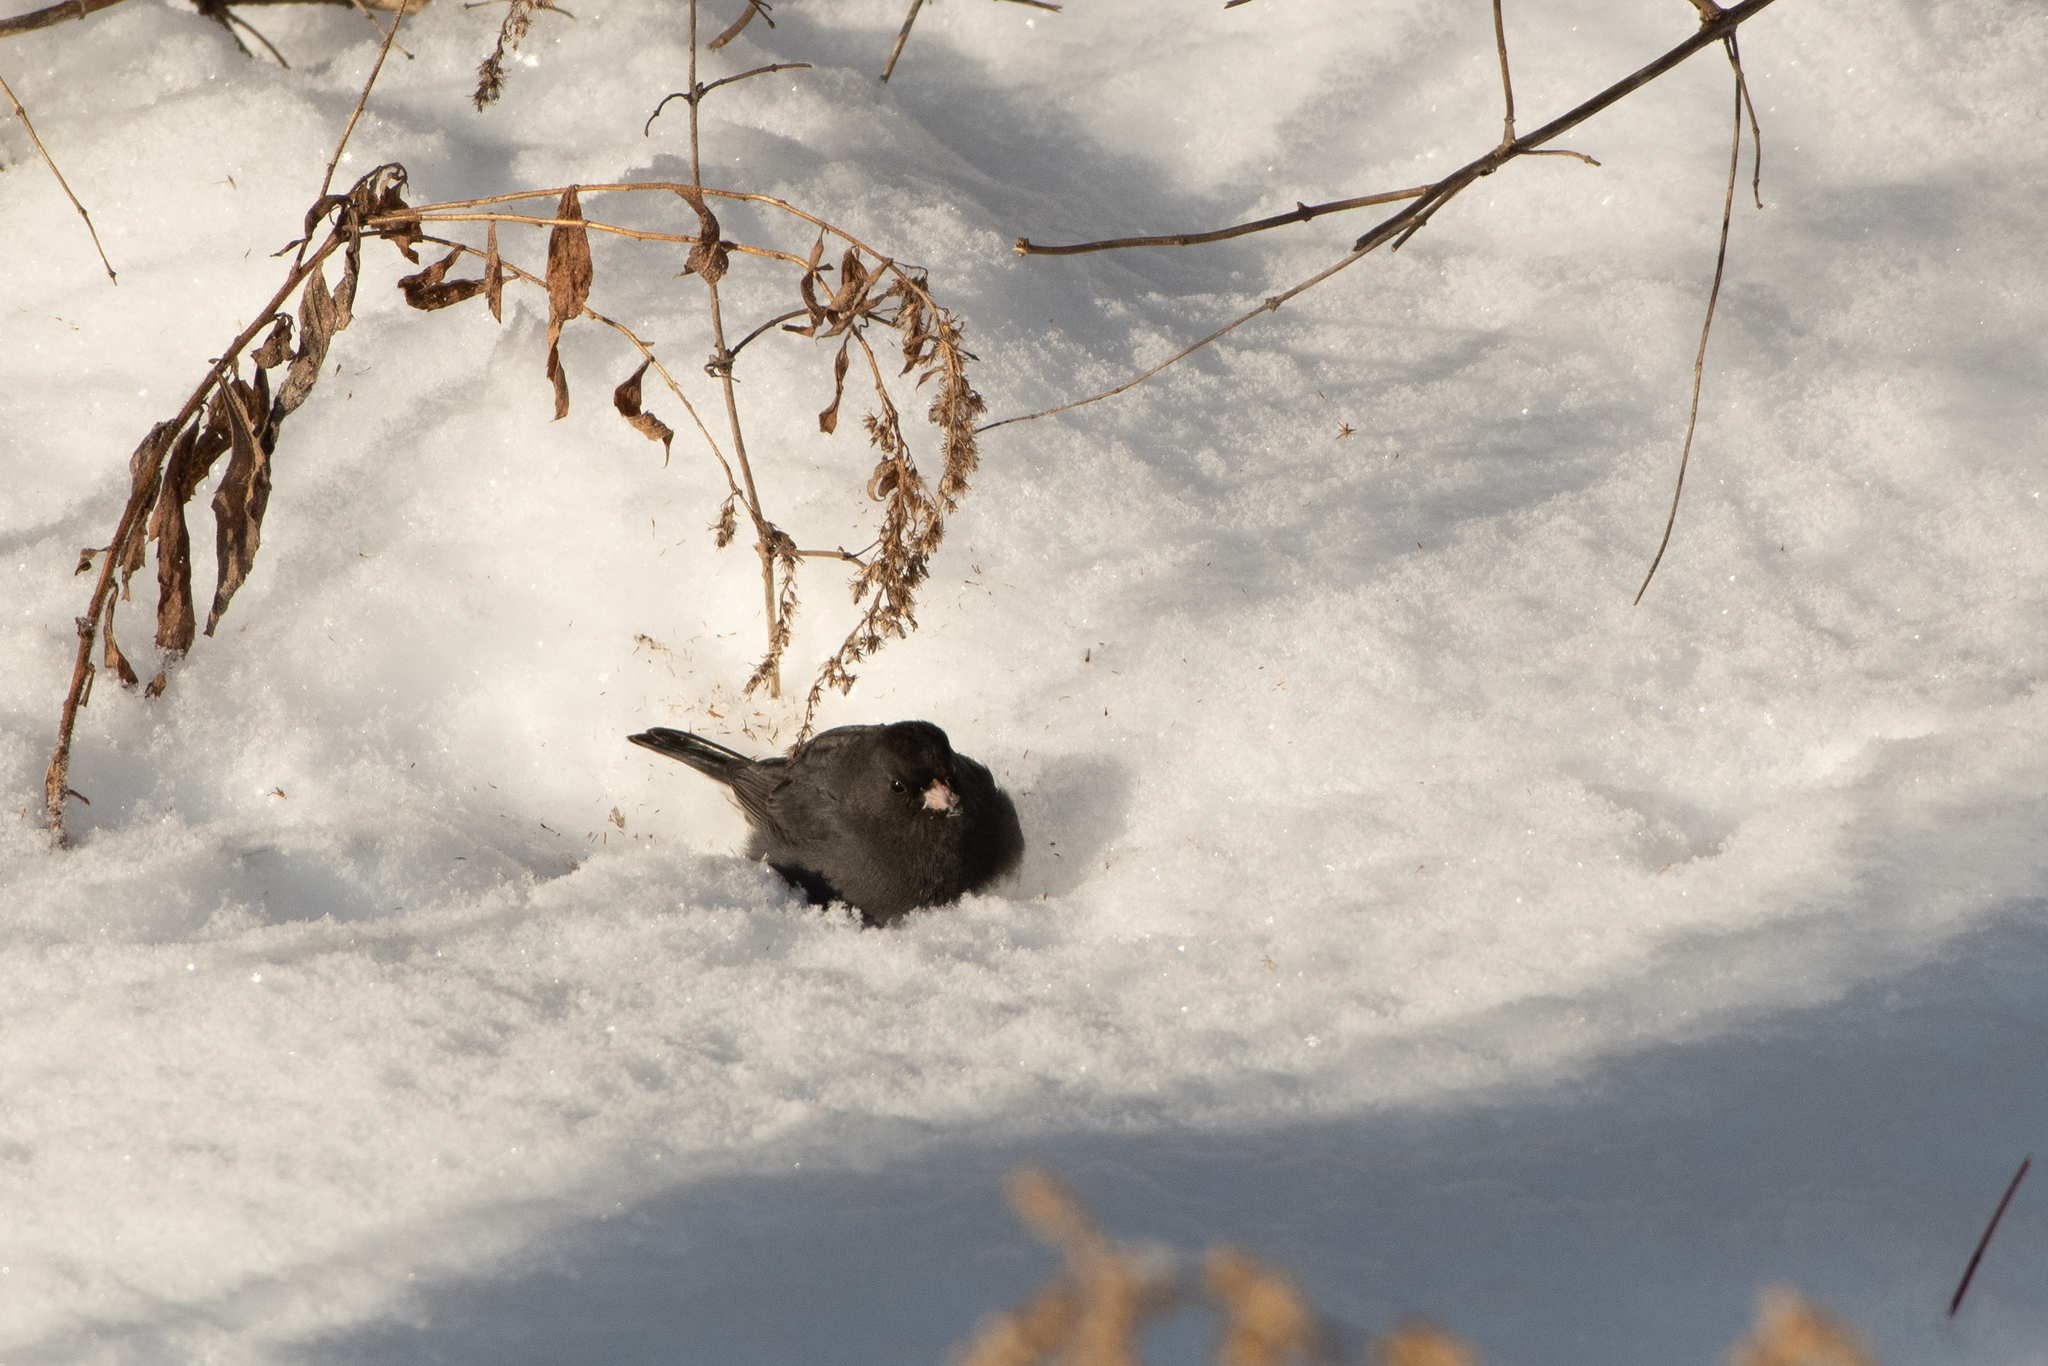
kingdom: Animalia
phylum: Chordata
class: Aves
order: Passeriformes
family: Passerellidae
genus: Junco
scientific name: Junco hyemalis
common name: Dark-eyed junco
